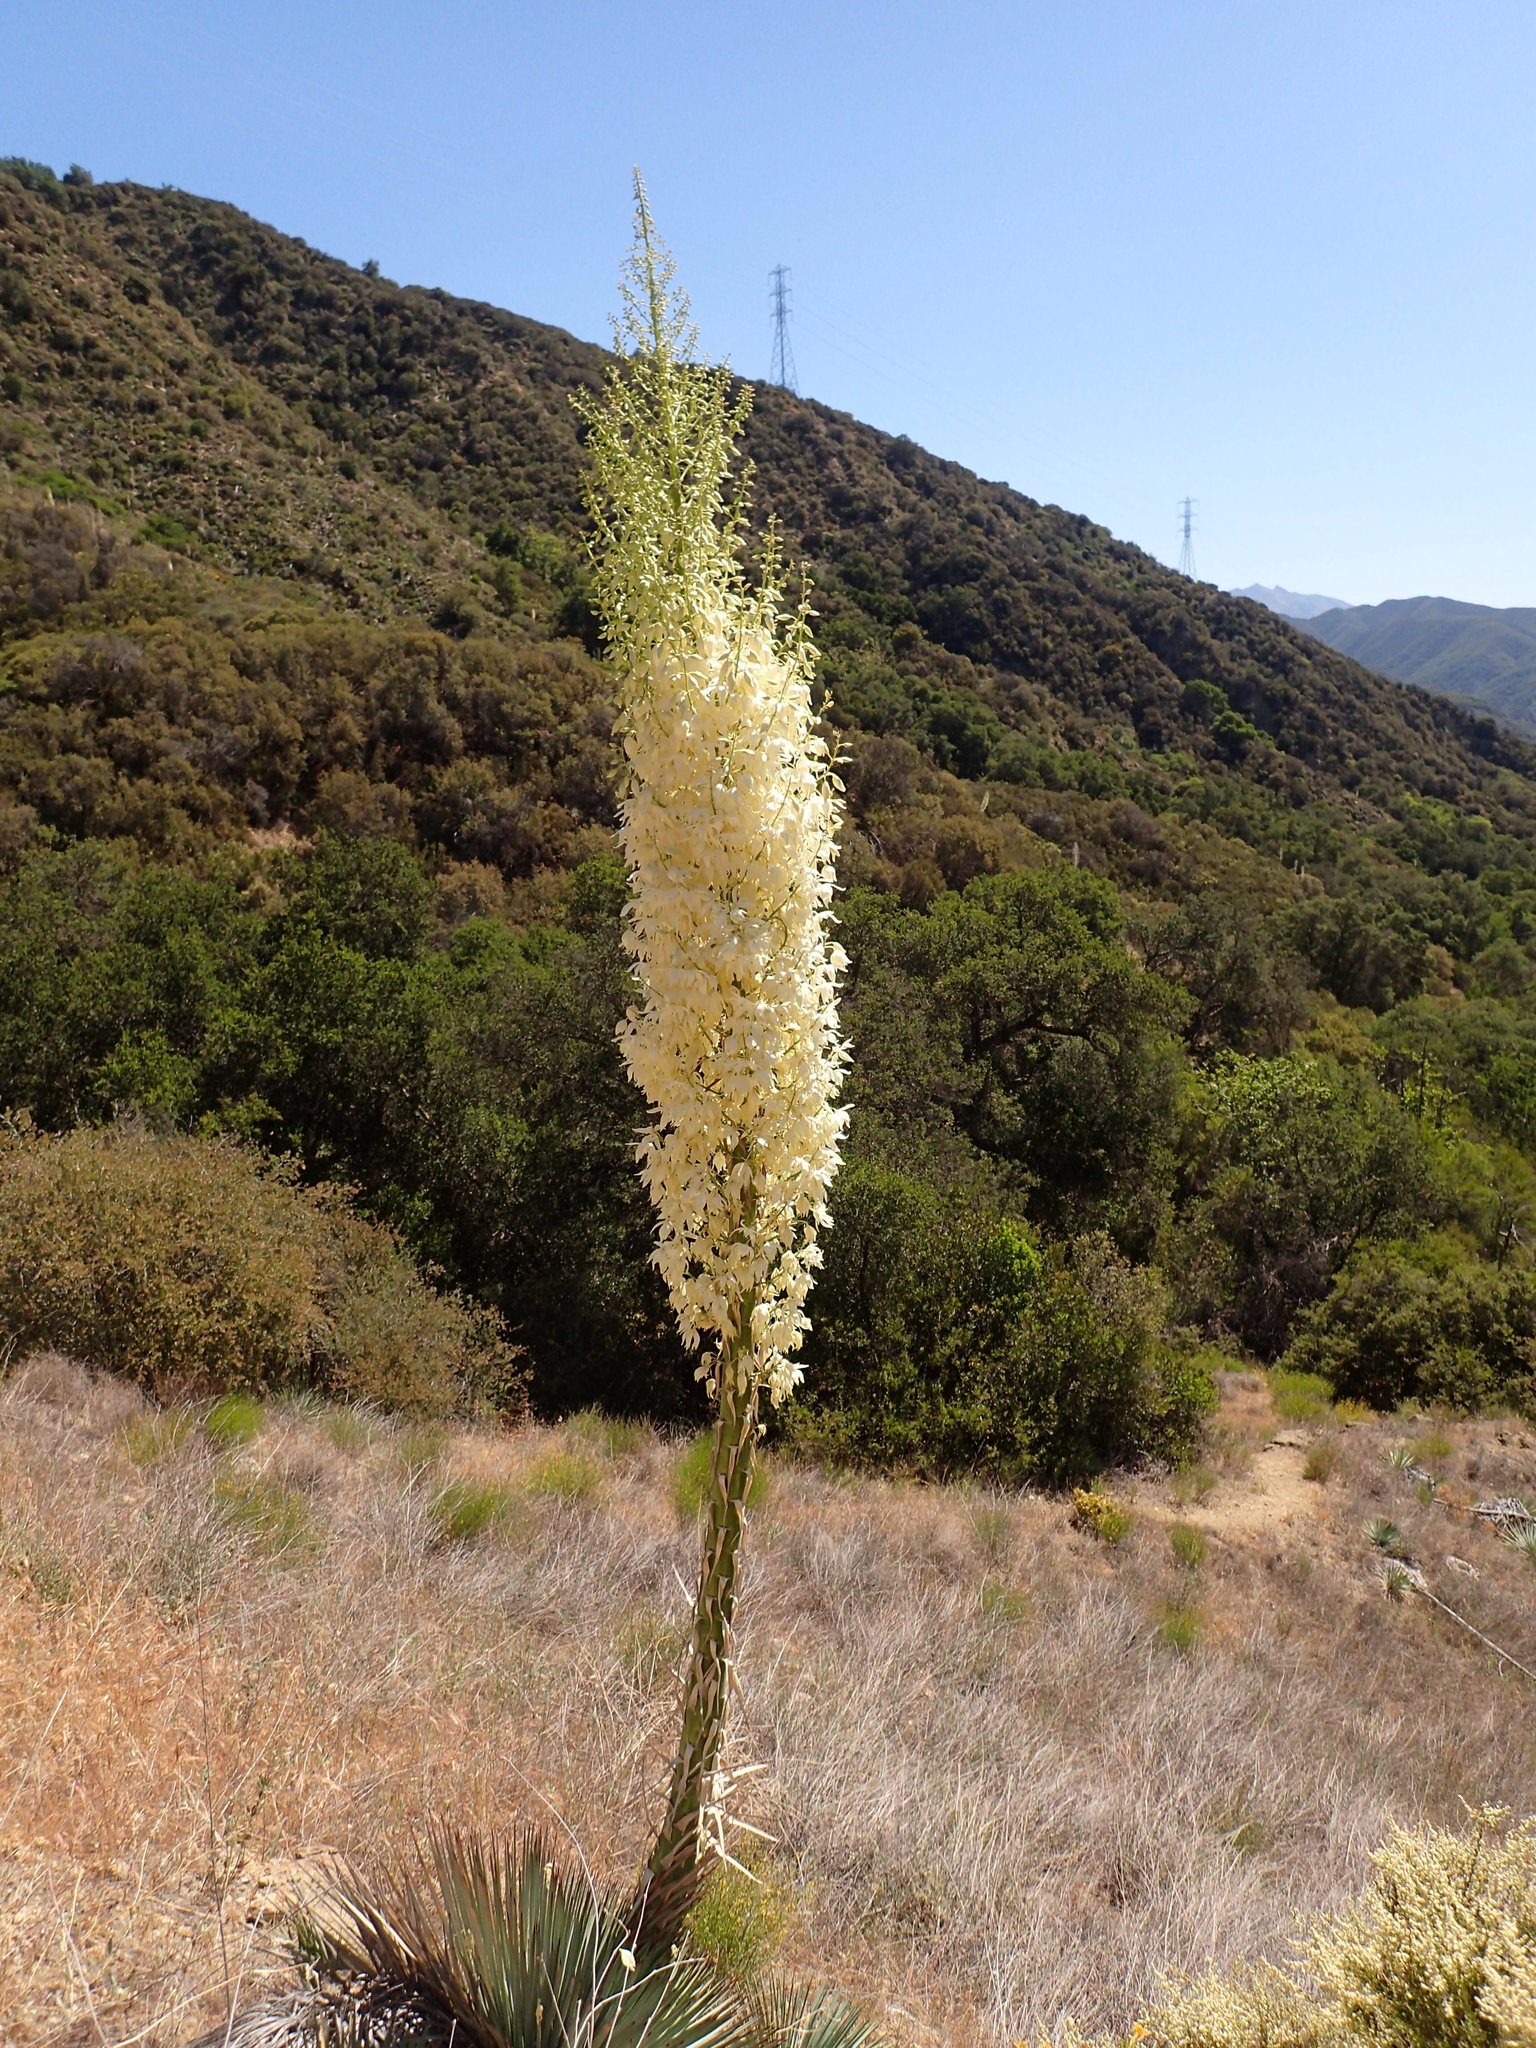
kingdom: Plantae
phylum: Tracheophyta
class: Liliopsida
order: Asparagales
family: Asparagaceae
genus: Hesperoyucca
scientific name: Hesperoyucca whipplei
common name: Our lord's-candle
